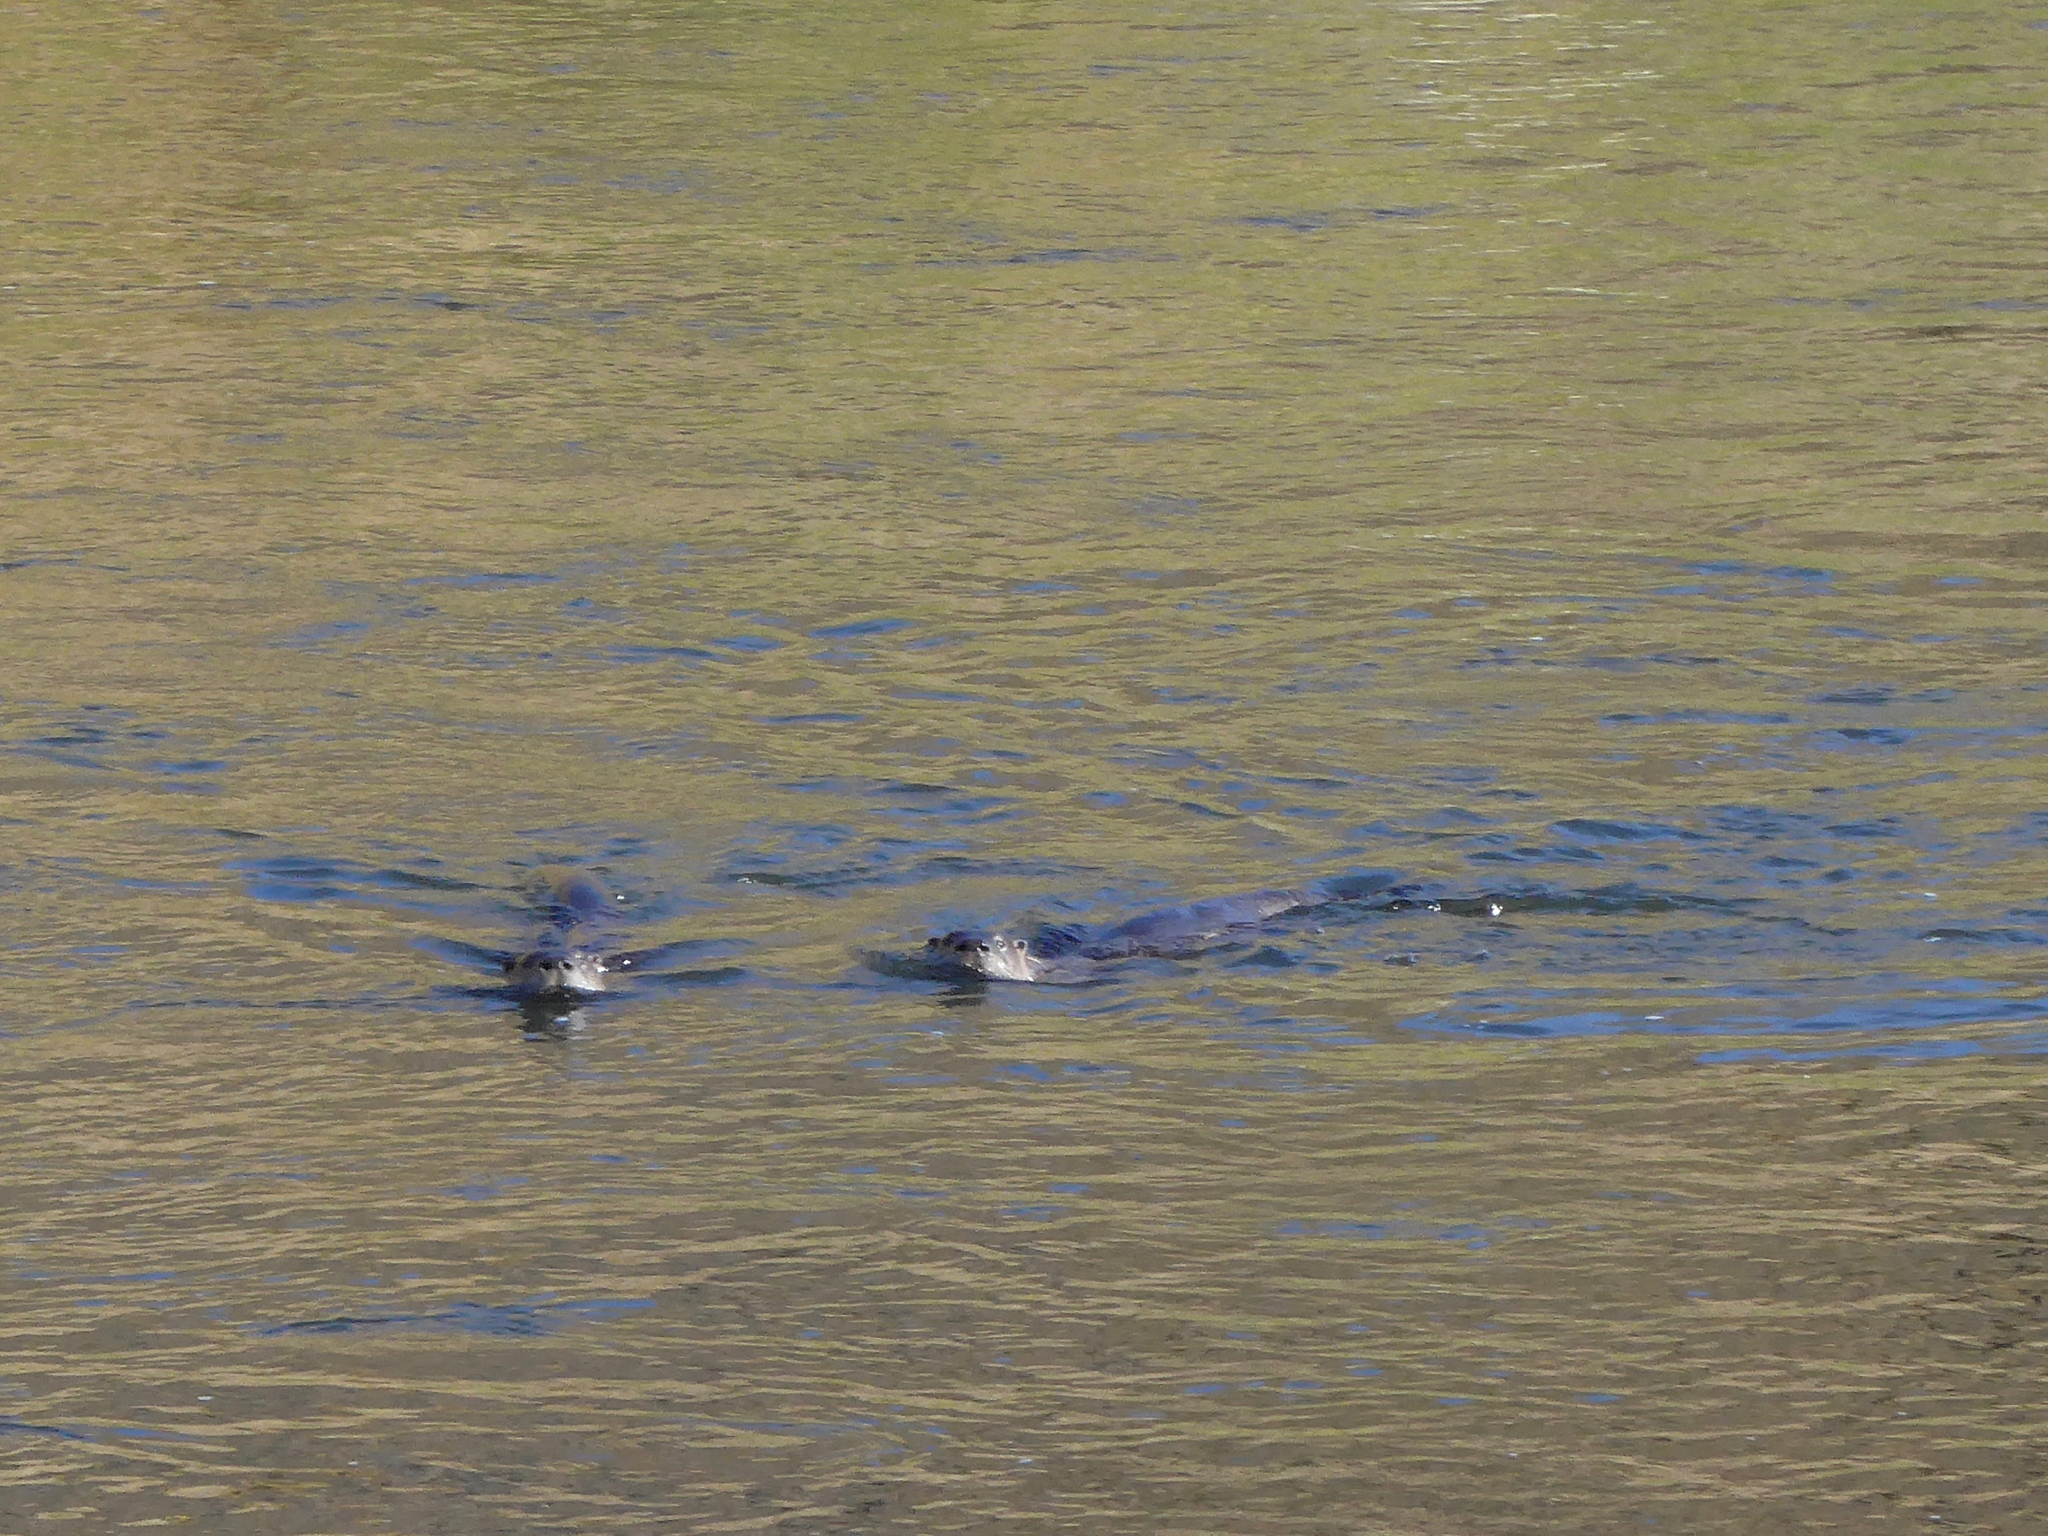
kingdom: Animalia
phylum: Chordata
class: Mammalia
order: Carnivora
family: Mustelidae
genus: Lontra
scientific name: Lontra canadensis
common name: North american river otter
